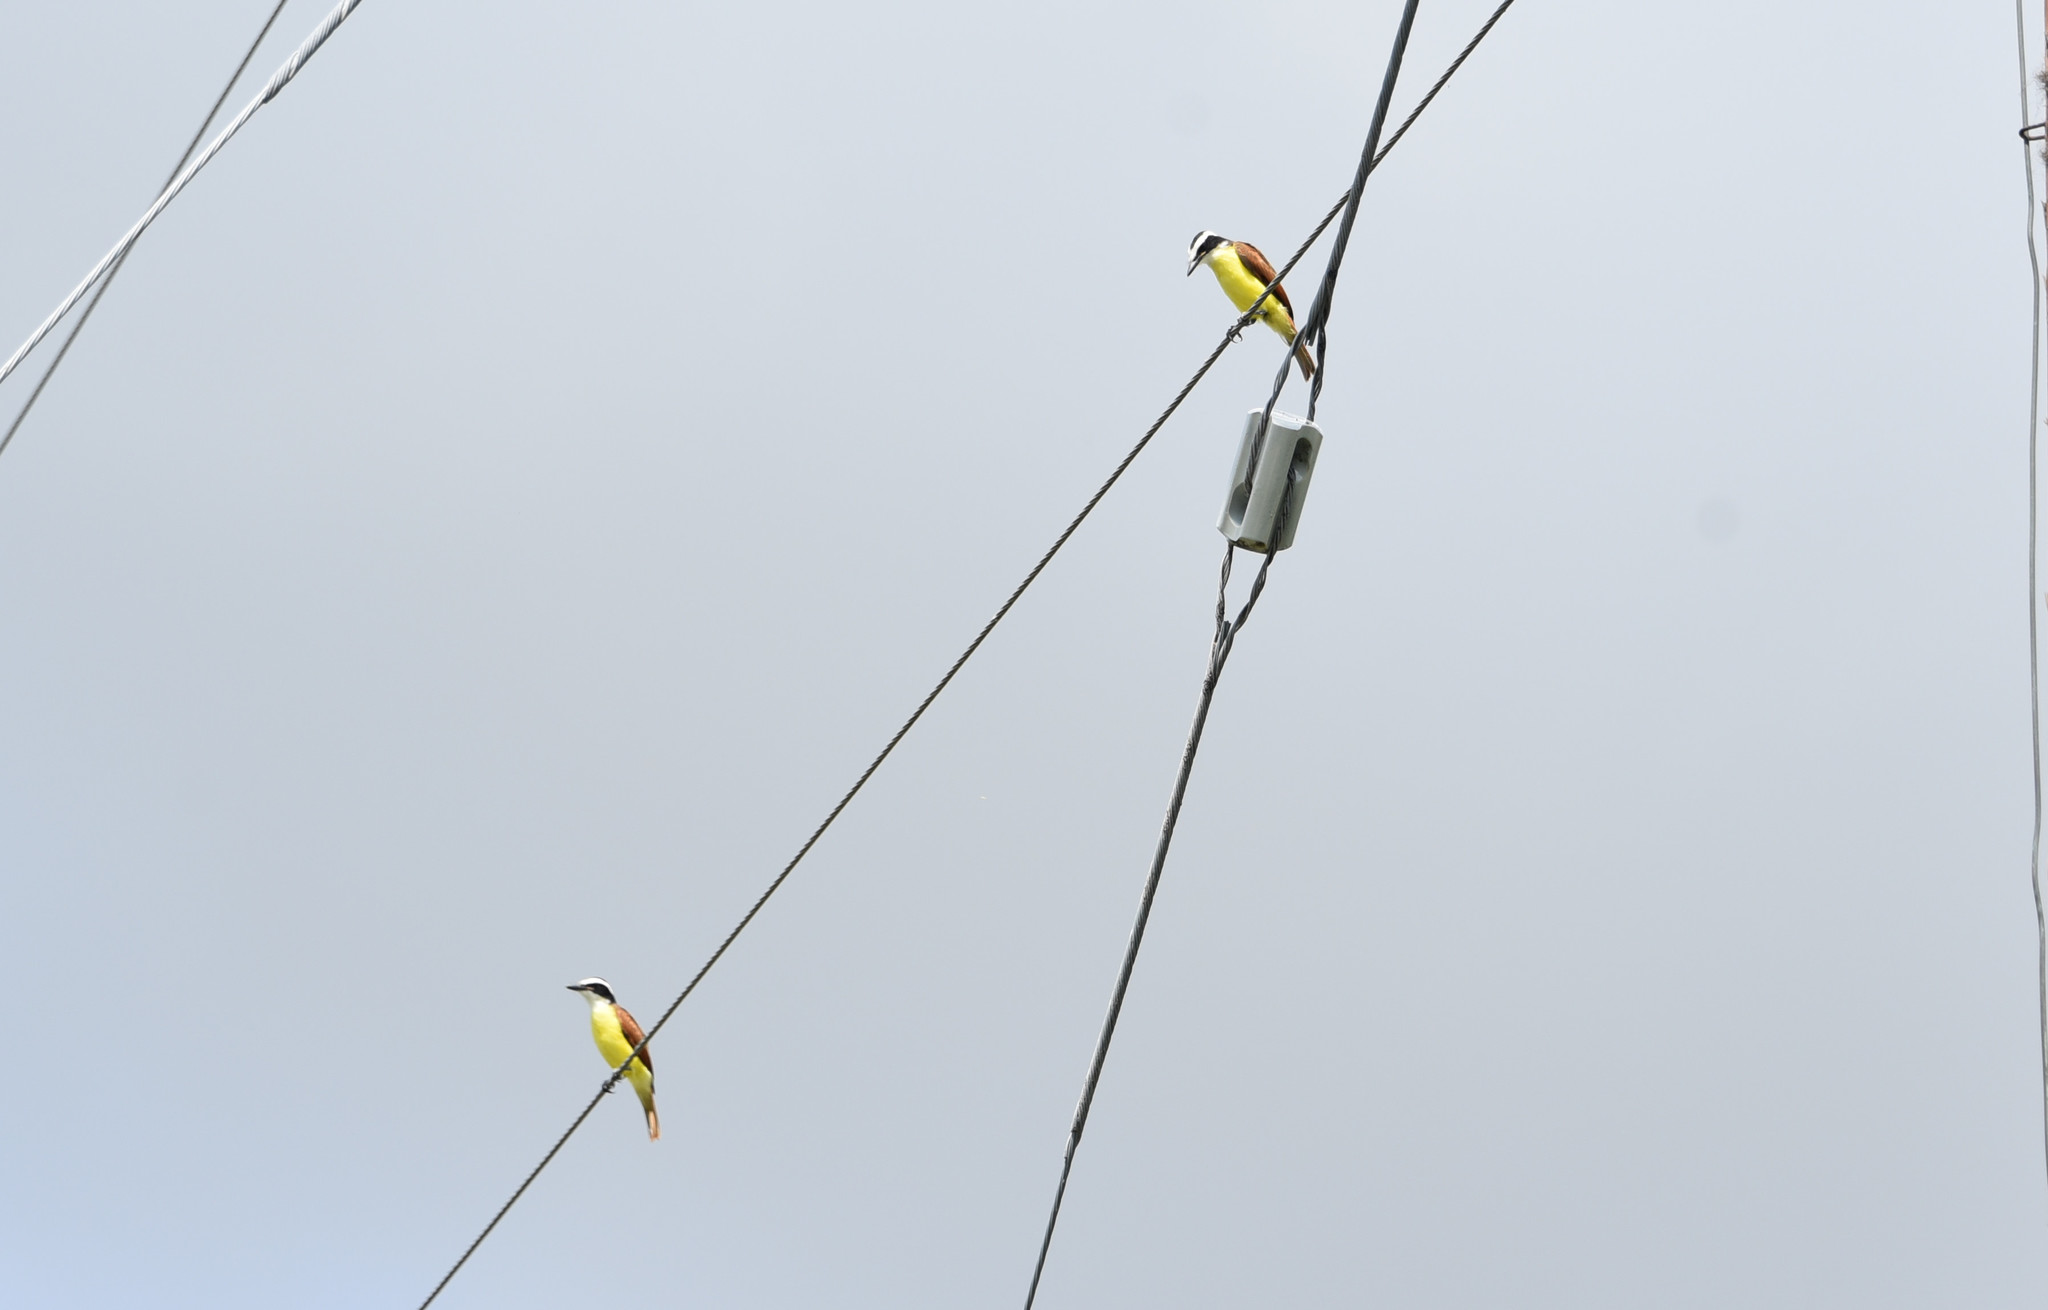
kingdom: Animalia
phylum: Chordata
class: Aves
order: Passeriformes
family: Tyrannidae
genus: Pitangus
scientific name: Pitangus sulphuratus
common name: Great kiskadee
